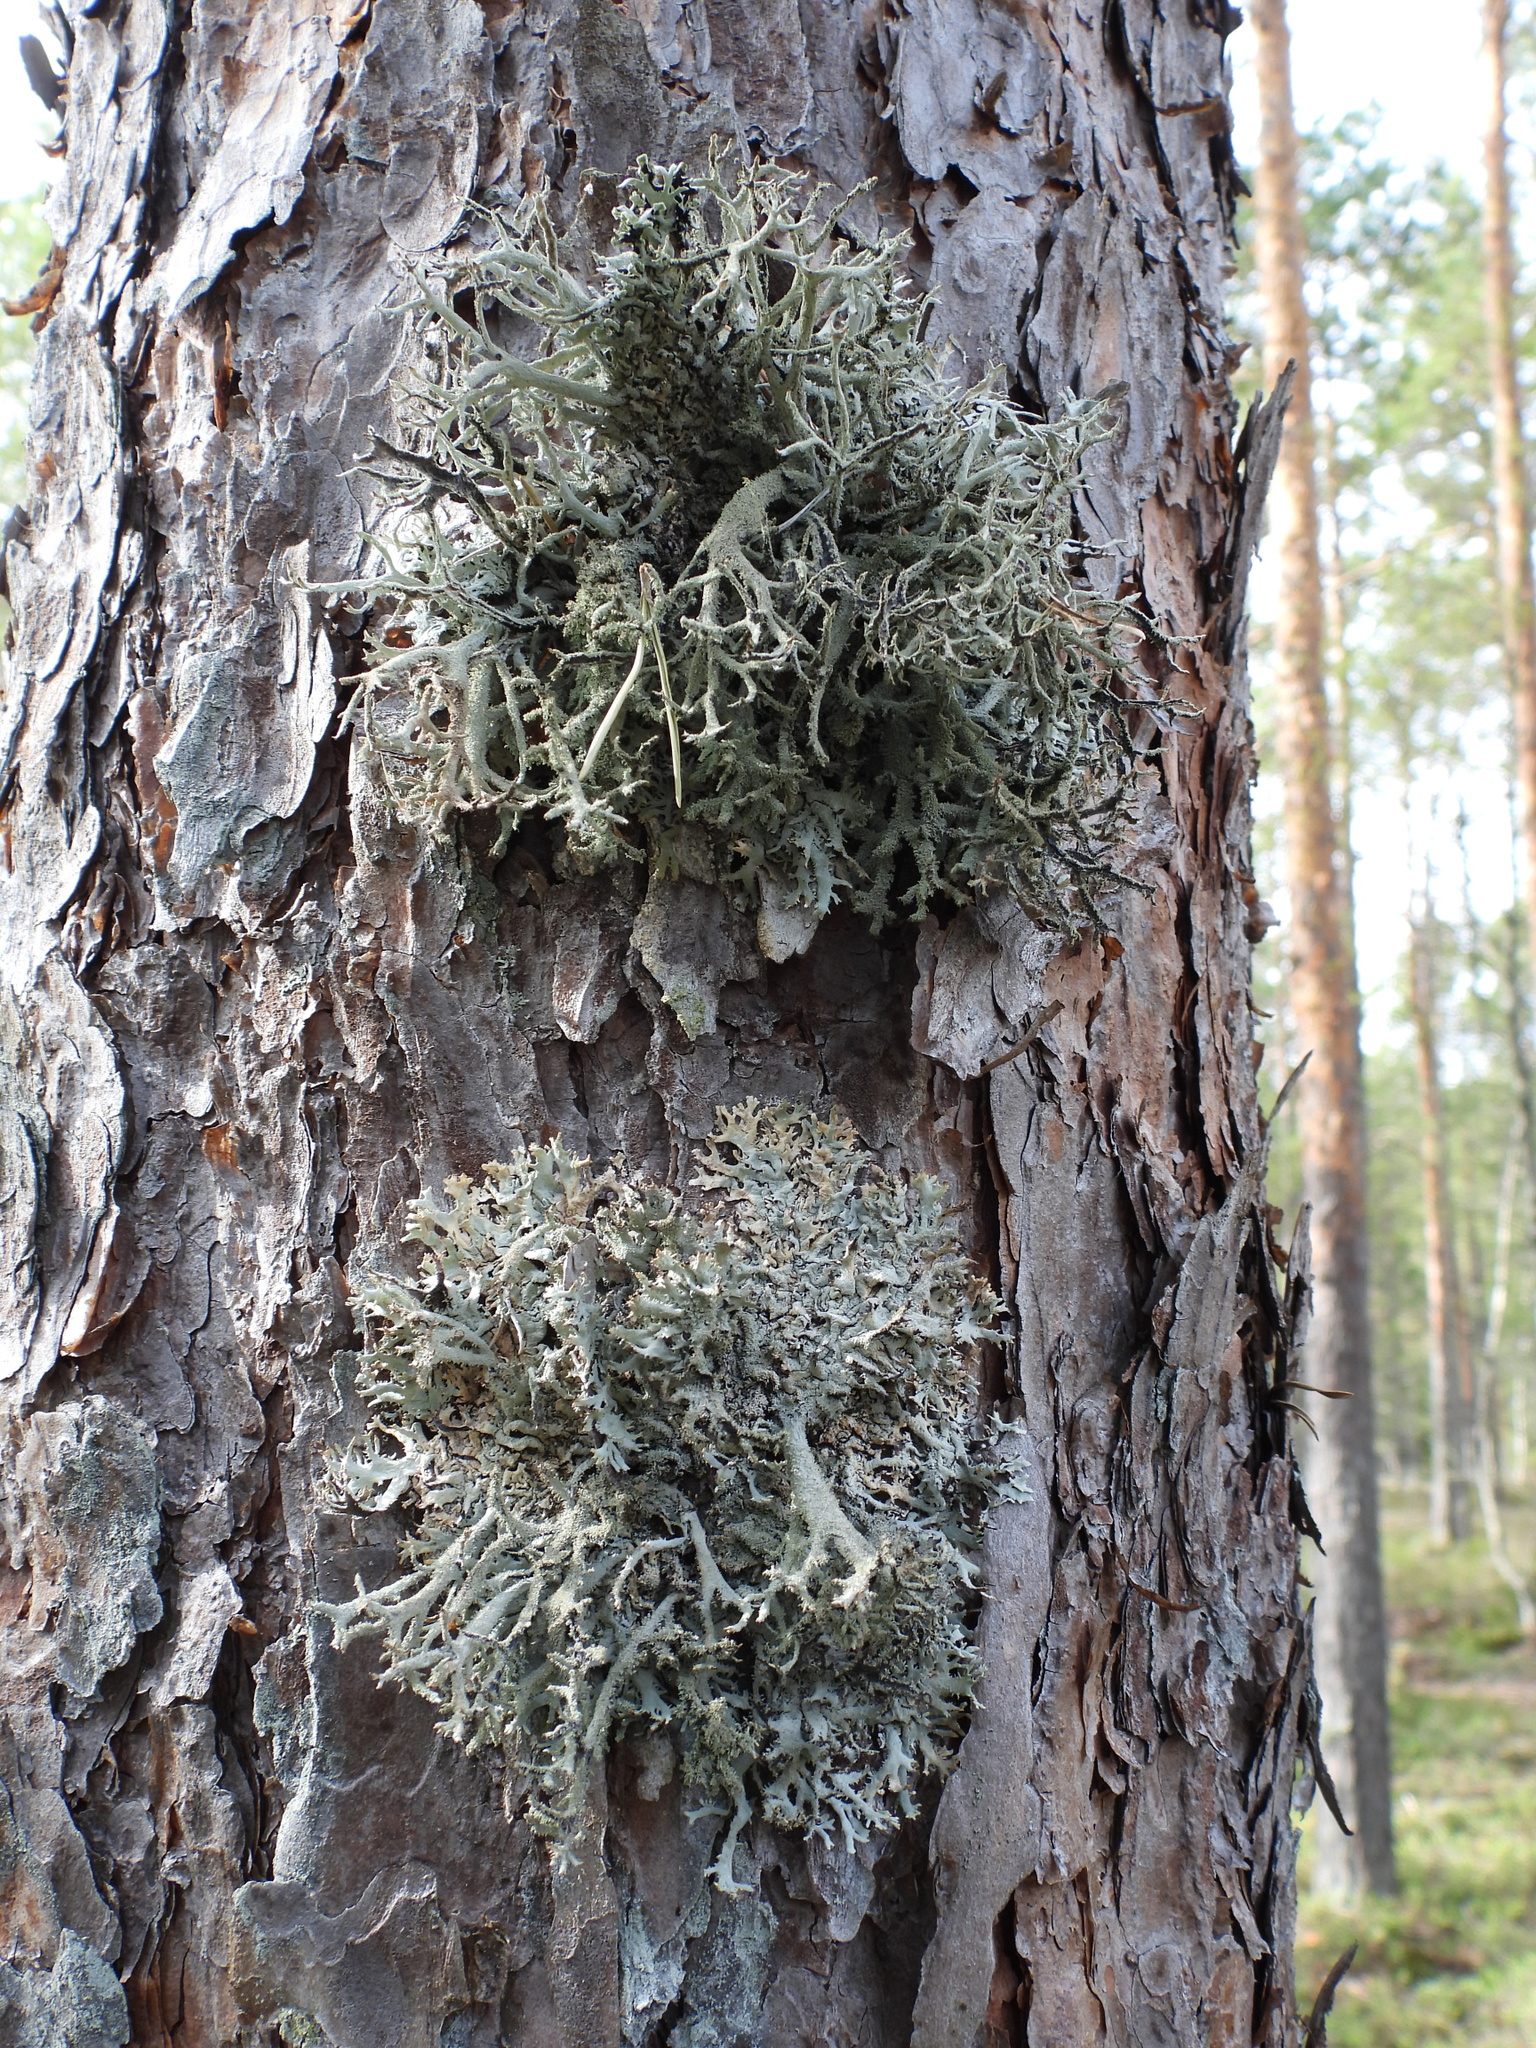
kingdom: Fungi
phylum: Ascomycota
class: Lecanoromycetes
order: Lecanorales
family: Parmeliaceae
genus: Pseudevernia
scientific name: Pseudevernia furfuracea
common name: Tree moss
